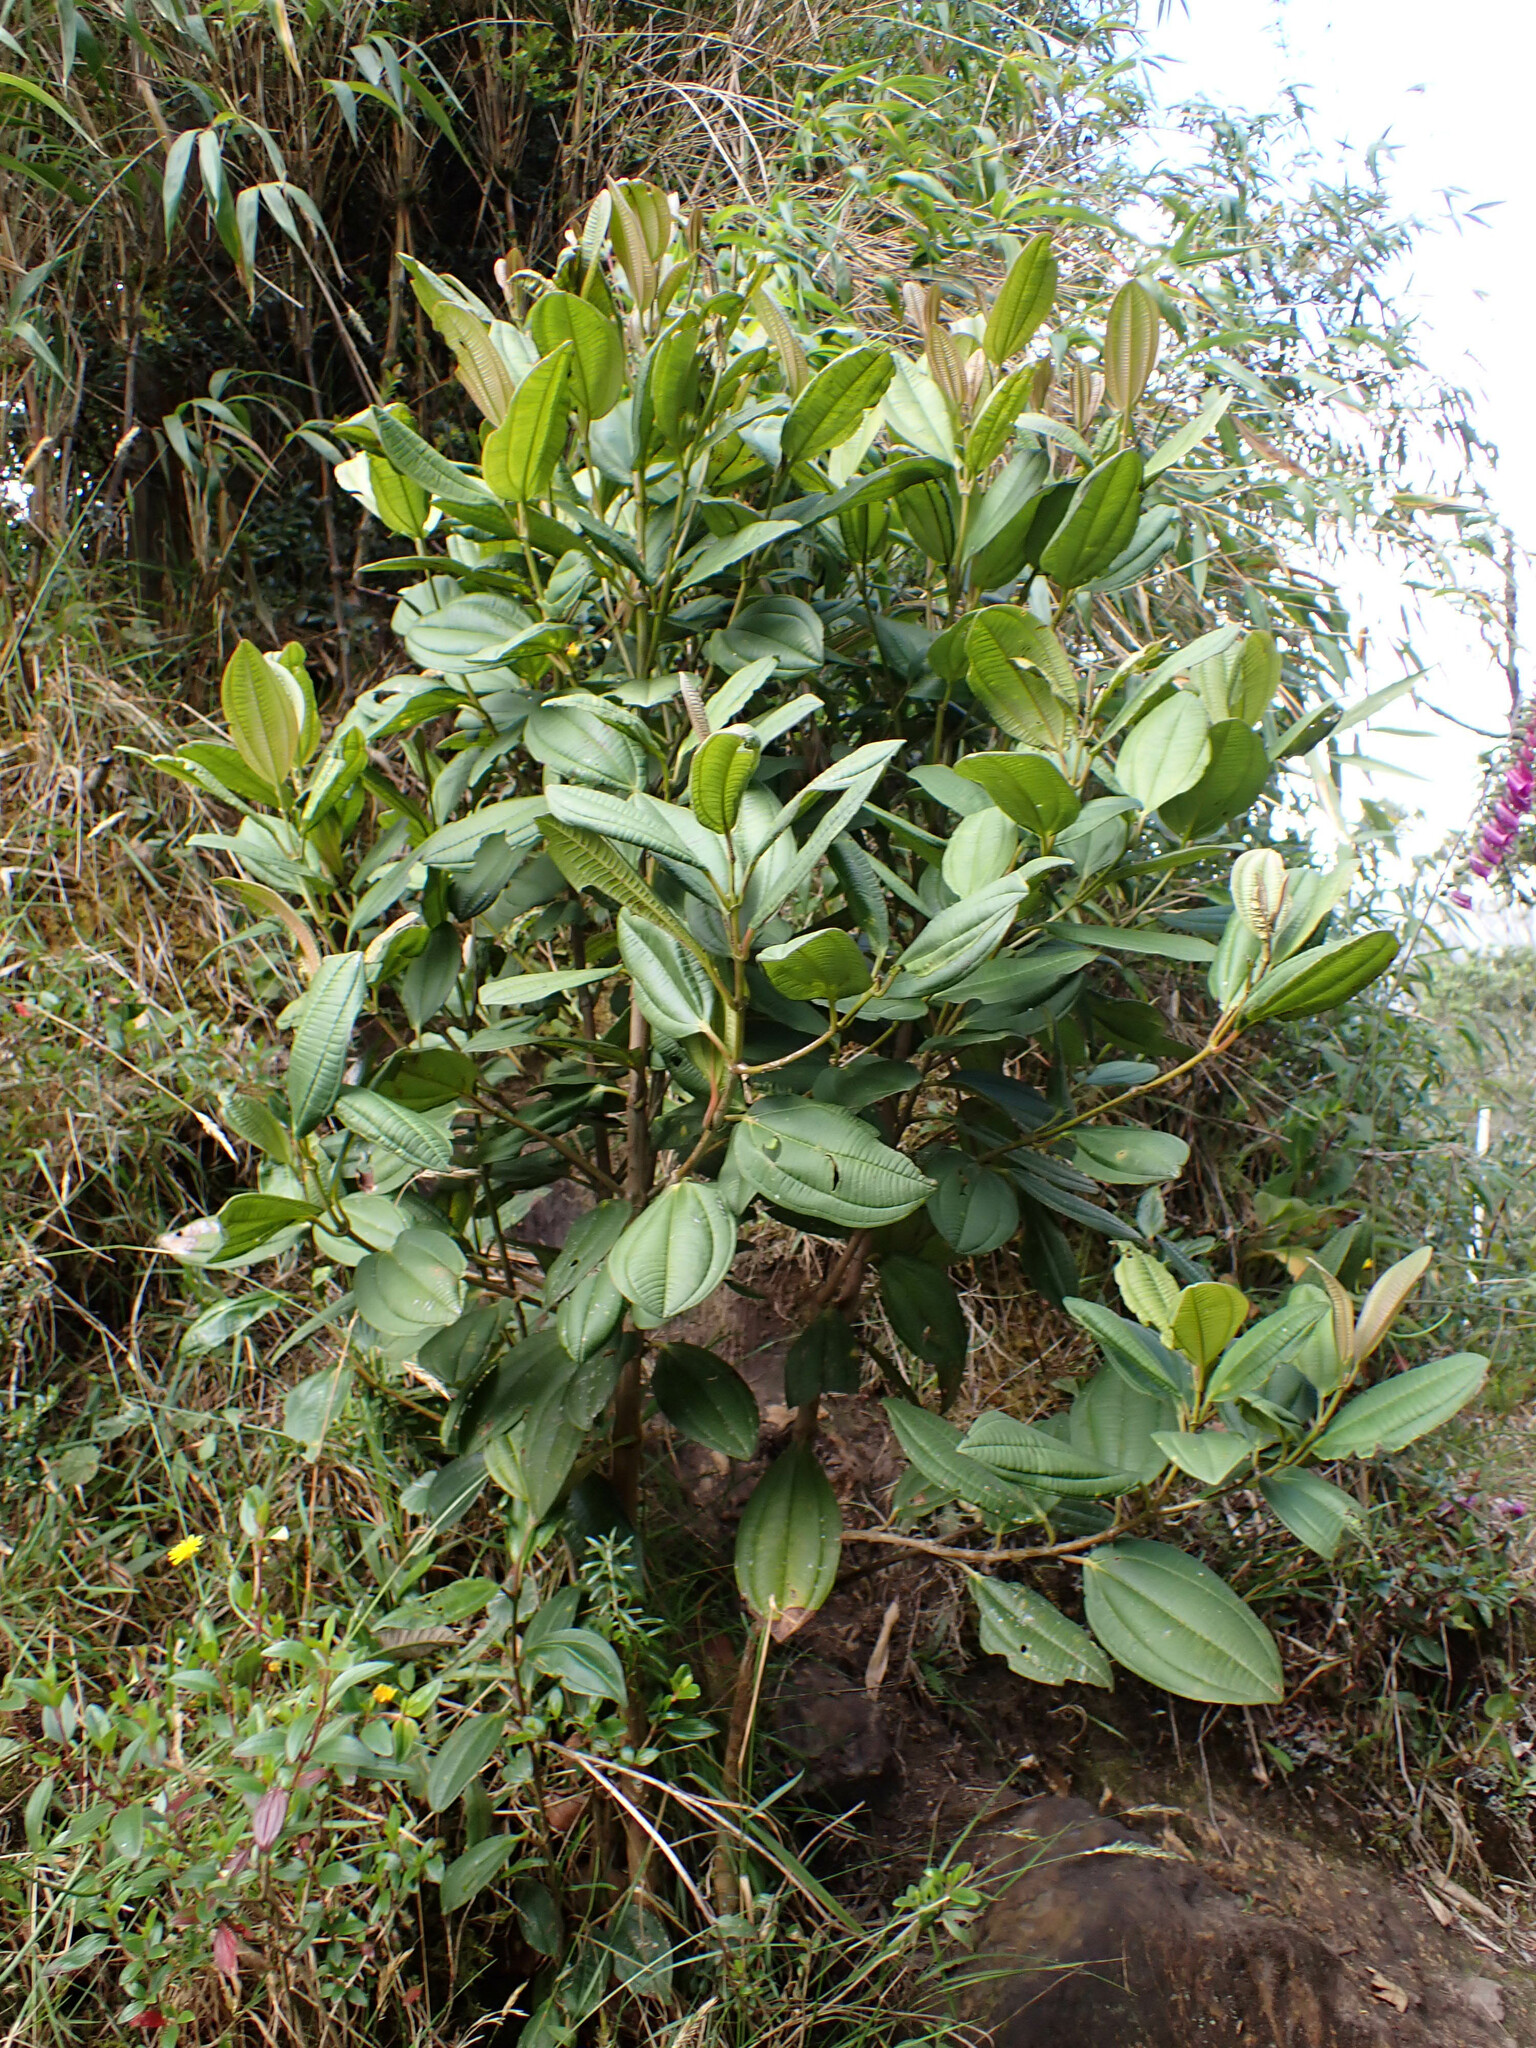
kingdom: Plantae
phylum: Tracheophyta
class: Magnoliopsida
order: Myrtales
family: Melastomataceae
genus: Miconia
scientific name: Miconia cundinamarcensis
